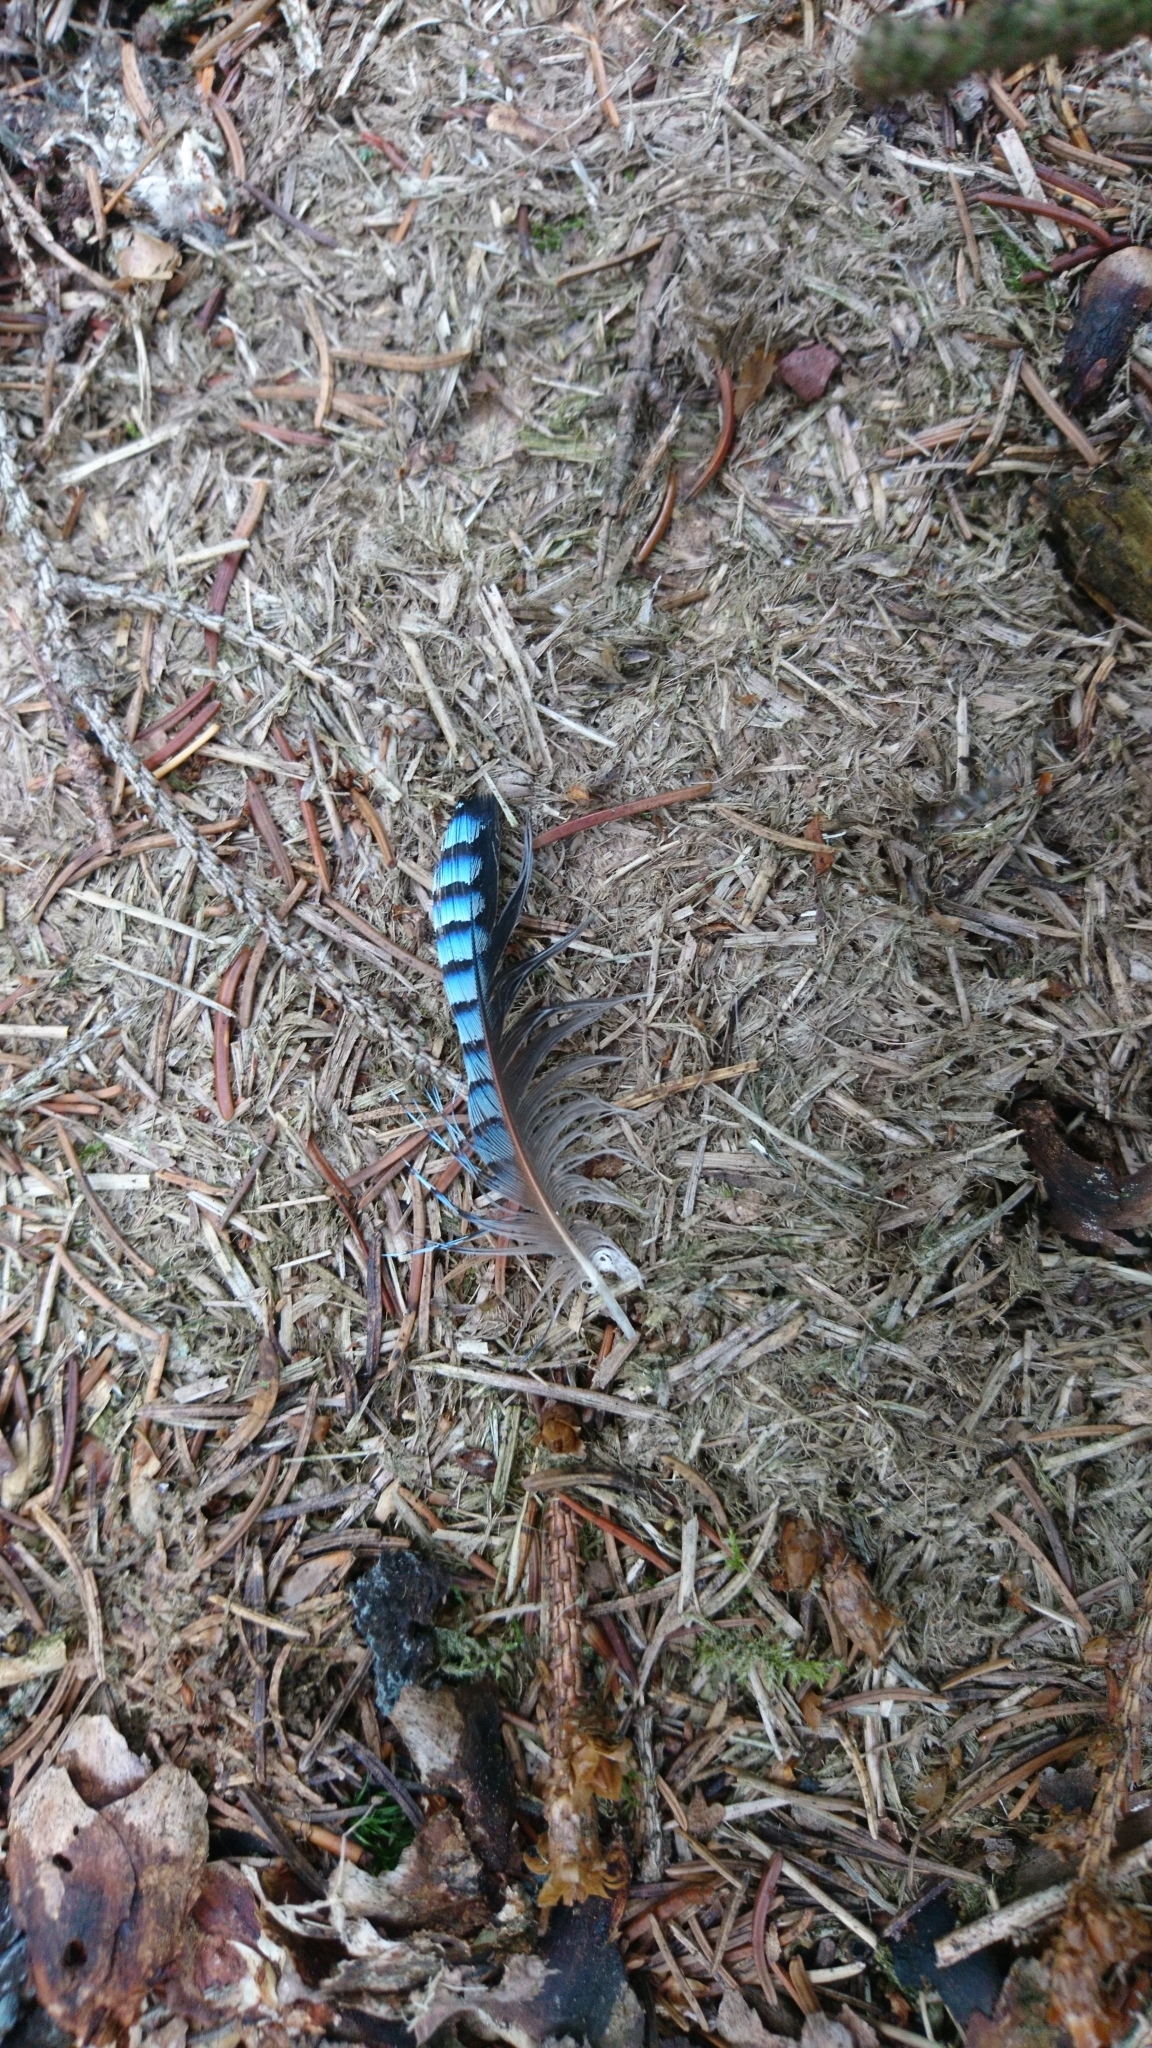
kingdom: Animalia
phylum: Chordata
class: Aves
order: Passeriformes
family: Corvidae
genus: Garrulus
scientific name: Garrulus glandarius
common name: Eurasian jay
